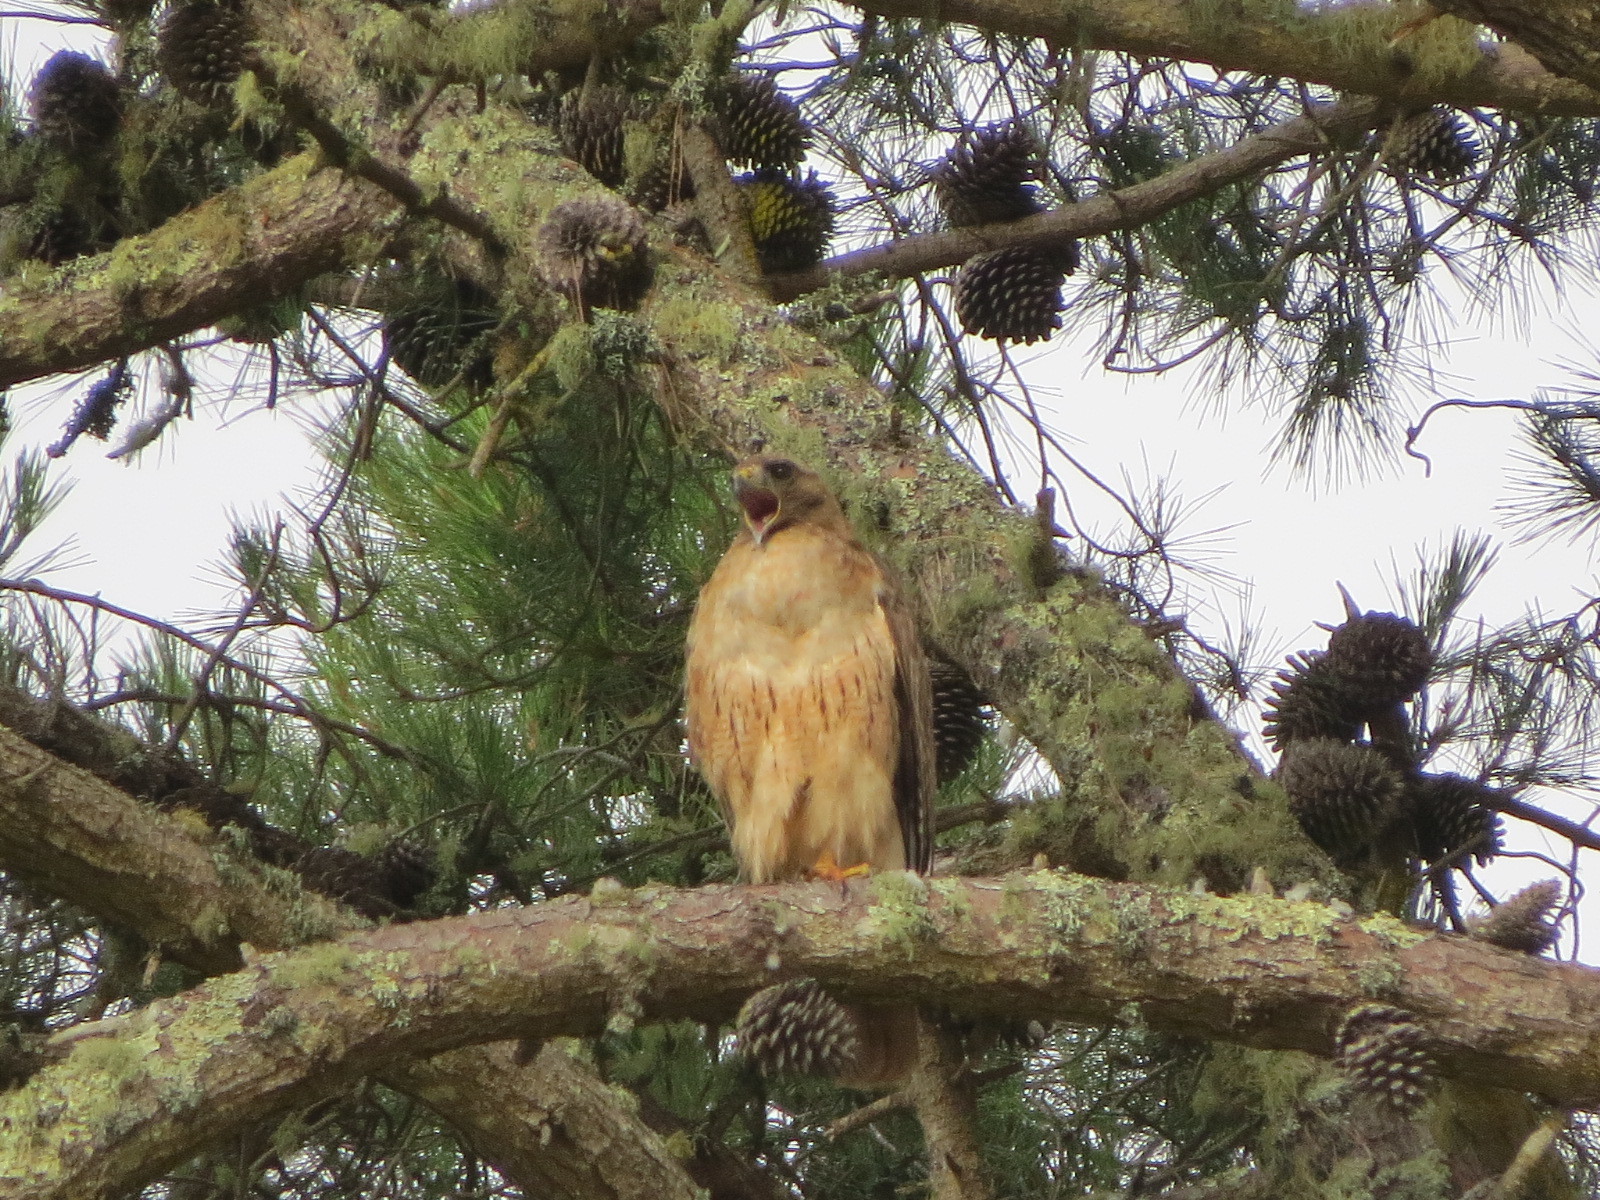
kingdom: Animalia
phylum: Chordata
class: Aves
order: Accipitriformes
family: Accipitridae
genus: Buteo
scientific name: Buteo jamaicensis
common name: Red-tailed hawk
